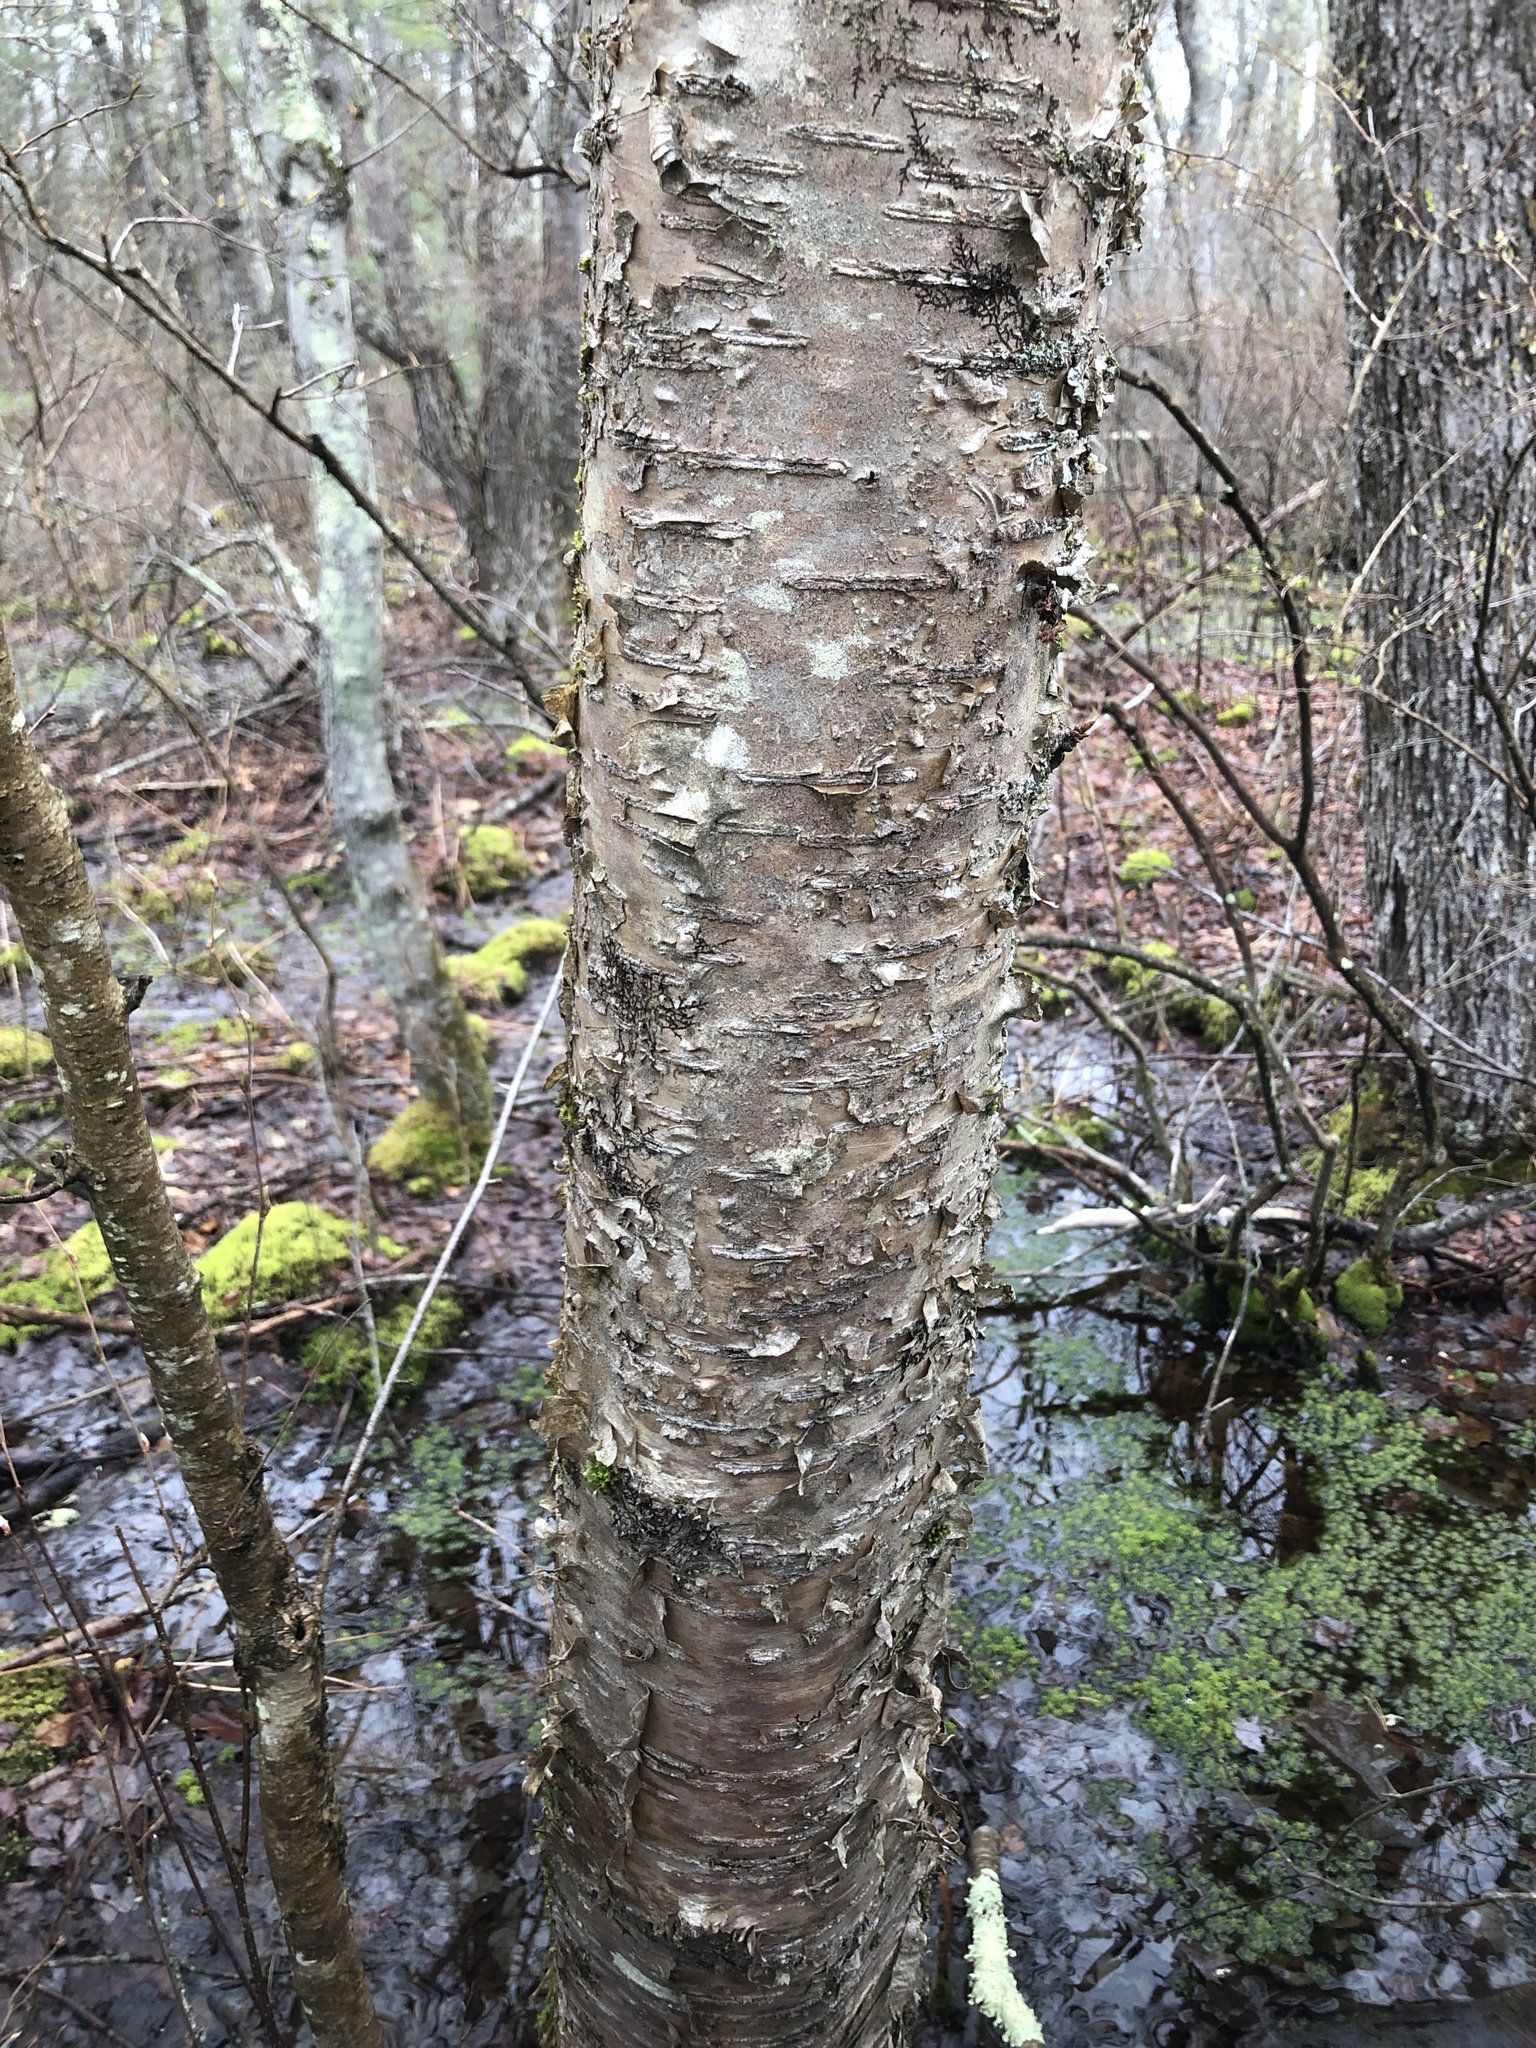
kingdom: Plantae
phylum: Tracheophyta
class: Magnoliopsida
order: Fagales
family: Betulaceae
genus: Betula
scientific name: Betula alleghaniensis
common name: Yellow birch
